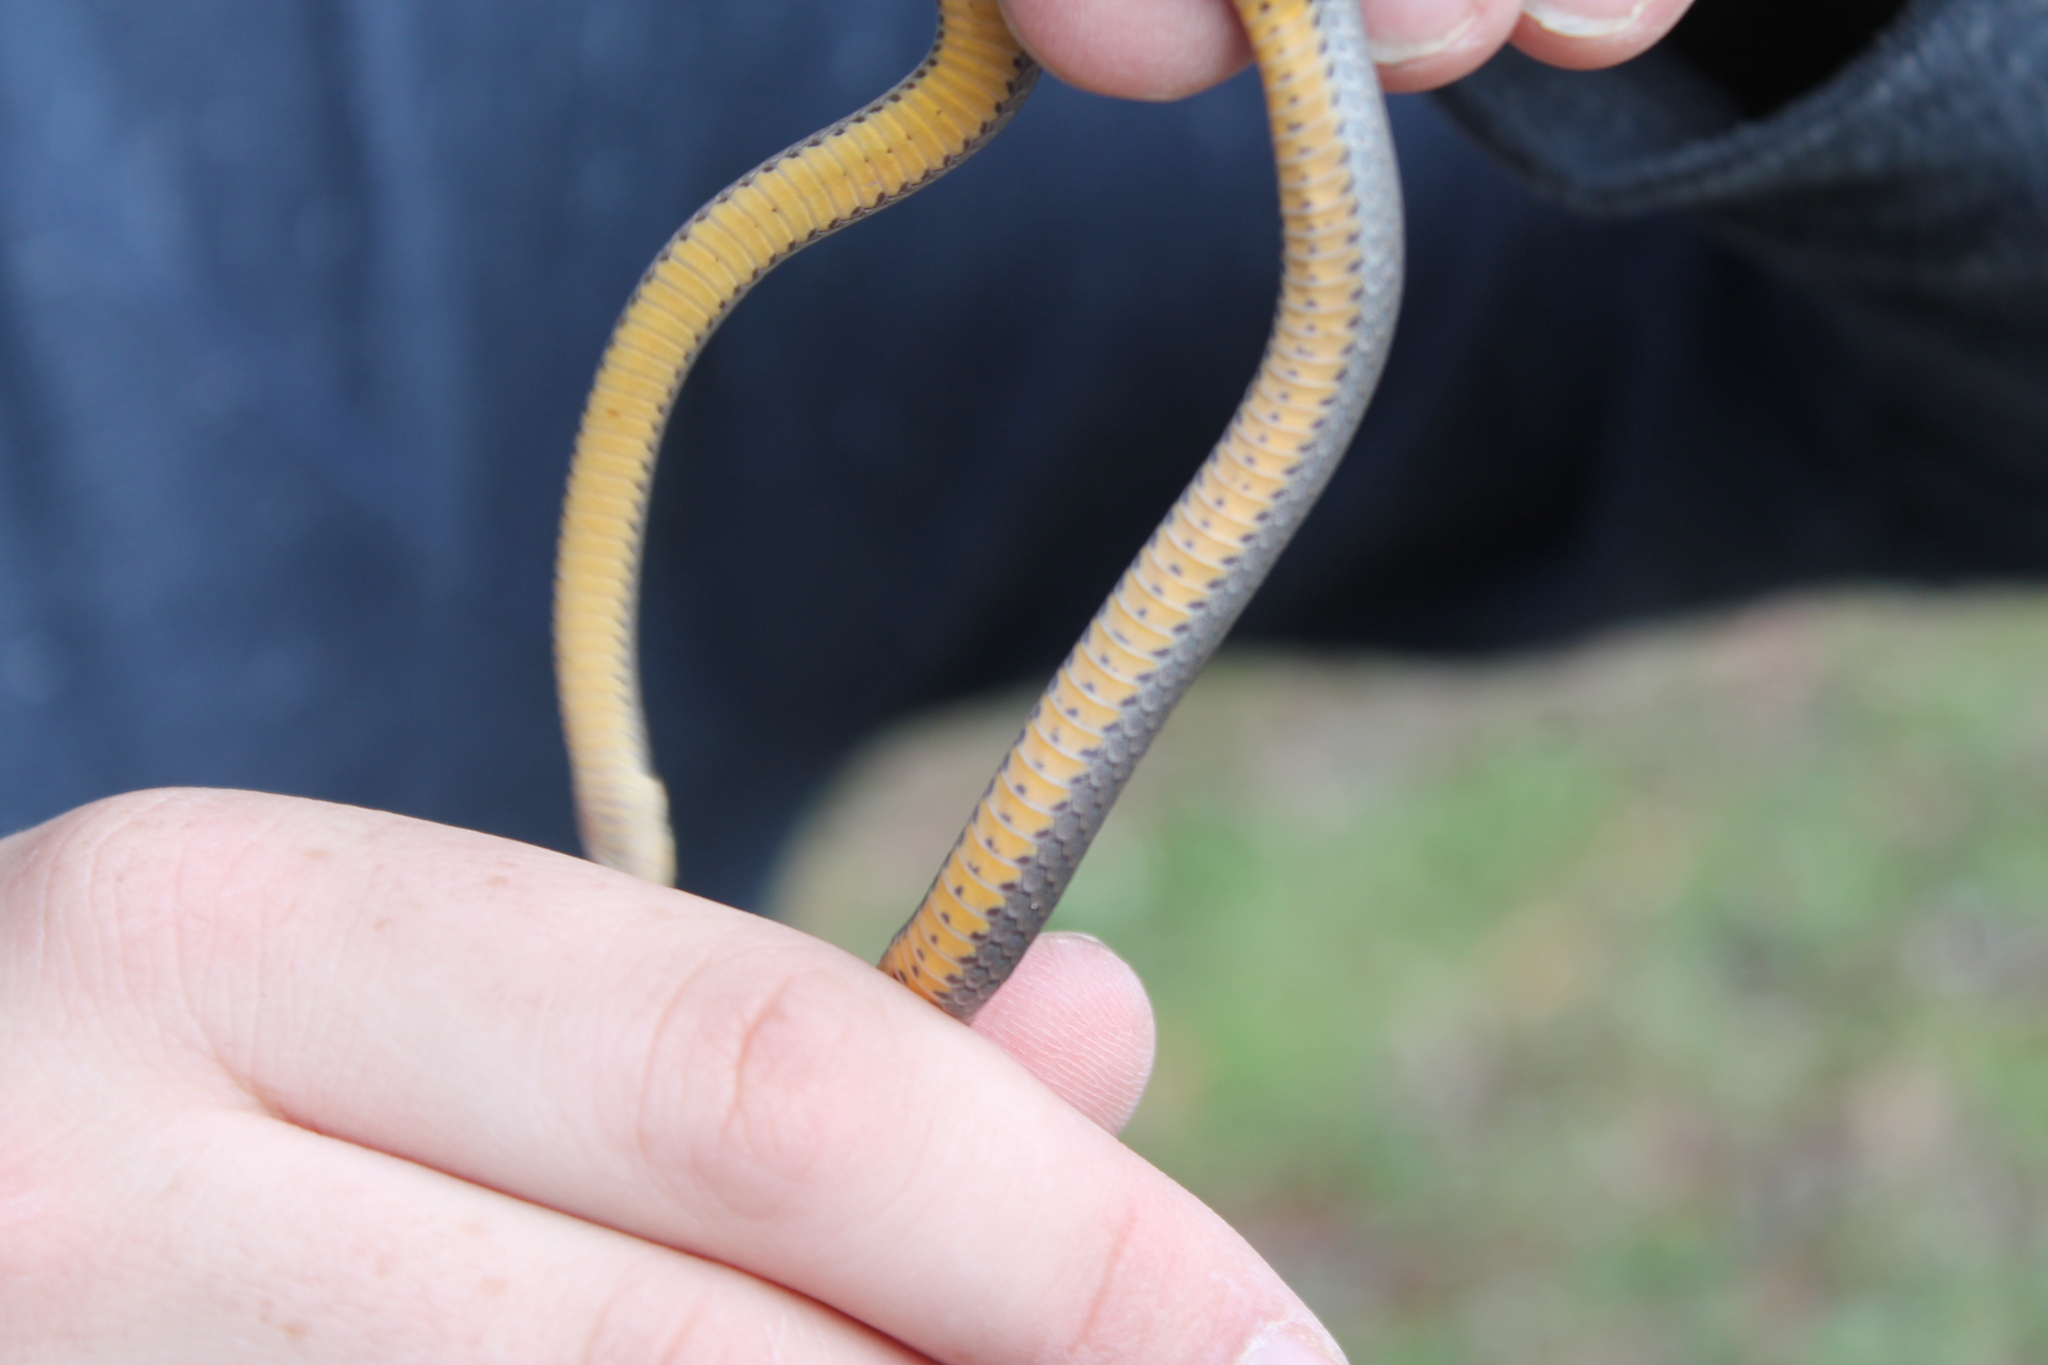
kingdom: Animalia
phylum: Chordata
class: Squamata
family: Colubridae
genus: Diadophis
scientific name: Diadophis punctatus
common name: Ringneck snake
